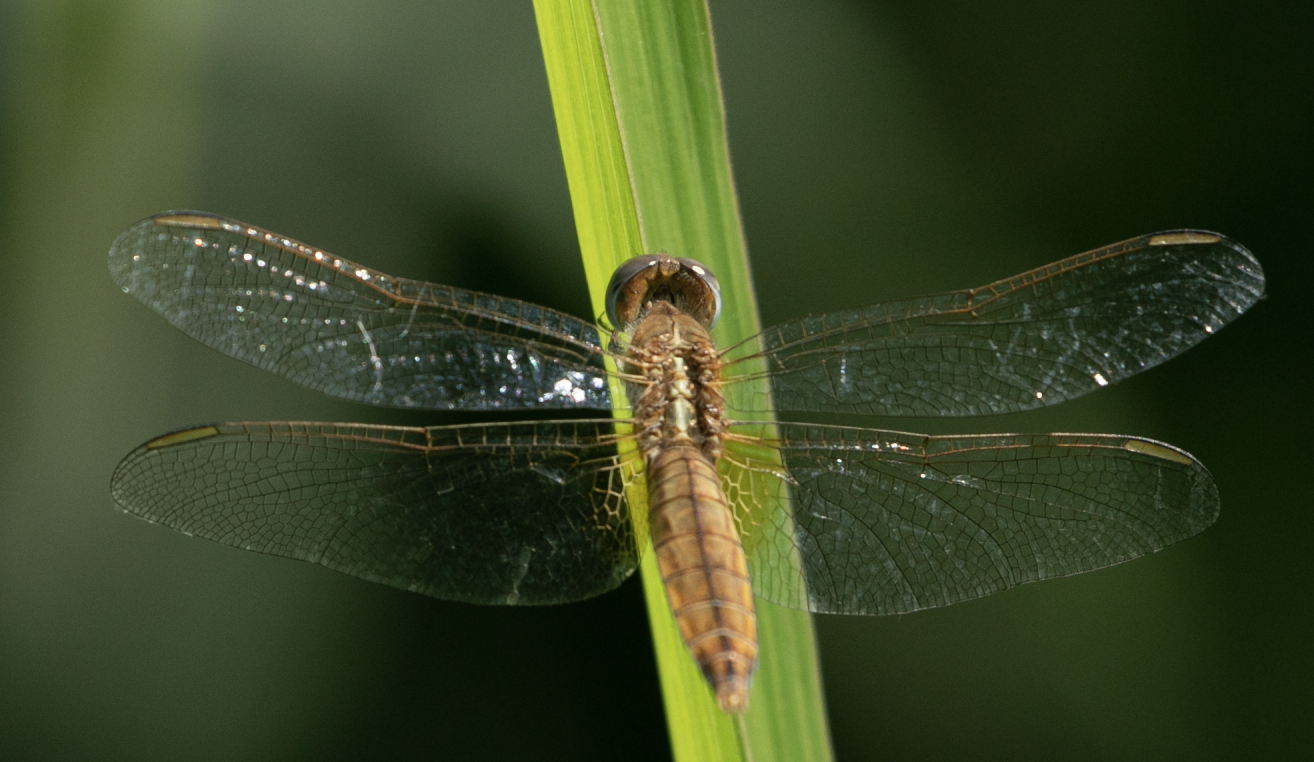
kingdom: Animalia
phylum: Arthropoda
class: Insecta
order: Odonata
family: Libellulidae
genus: Crocothemis
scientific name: Crocothemis erythraea
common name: Scarlet dragonfly
